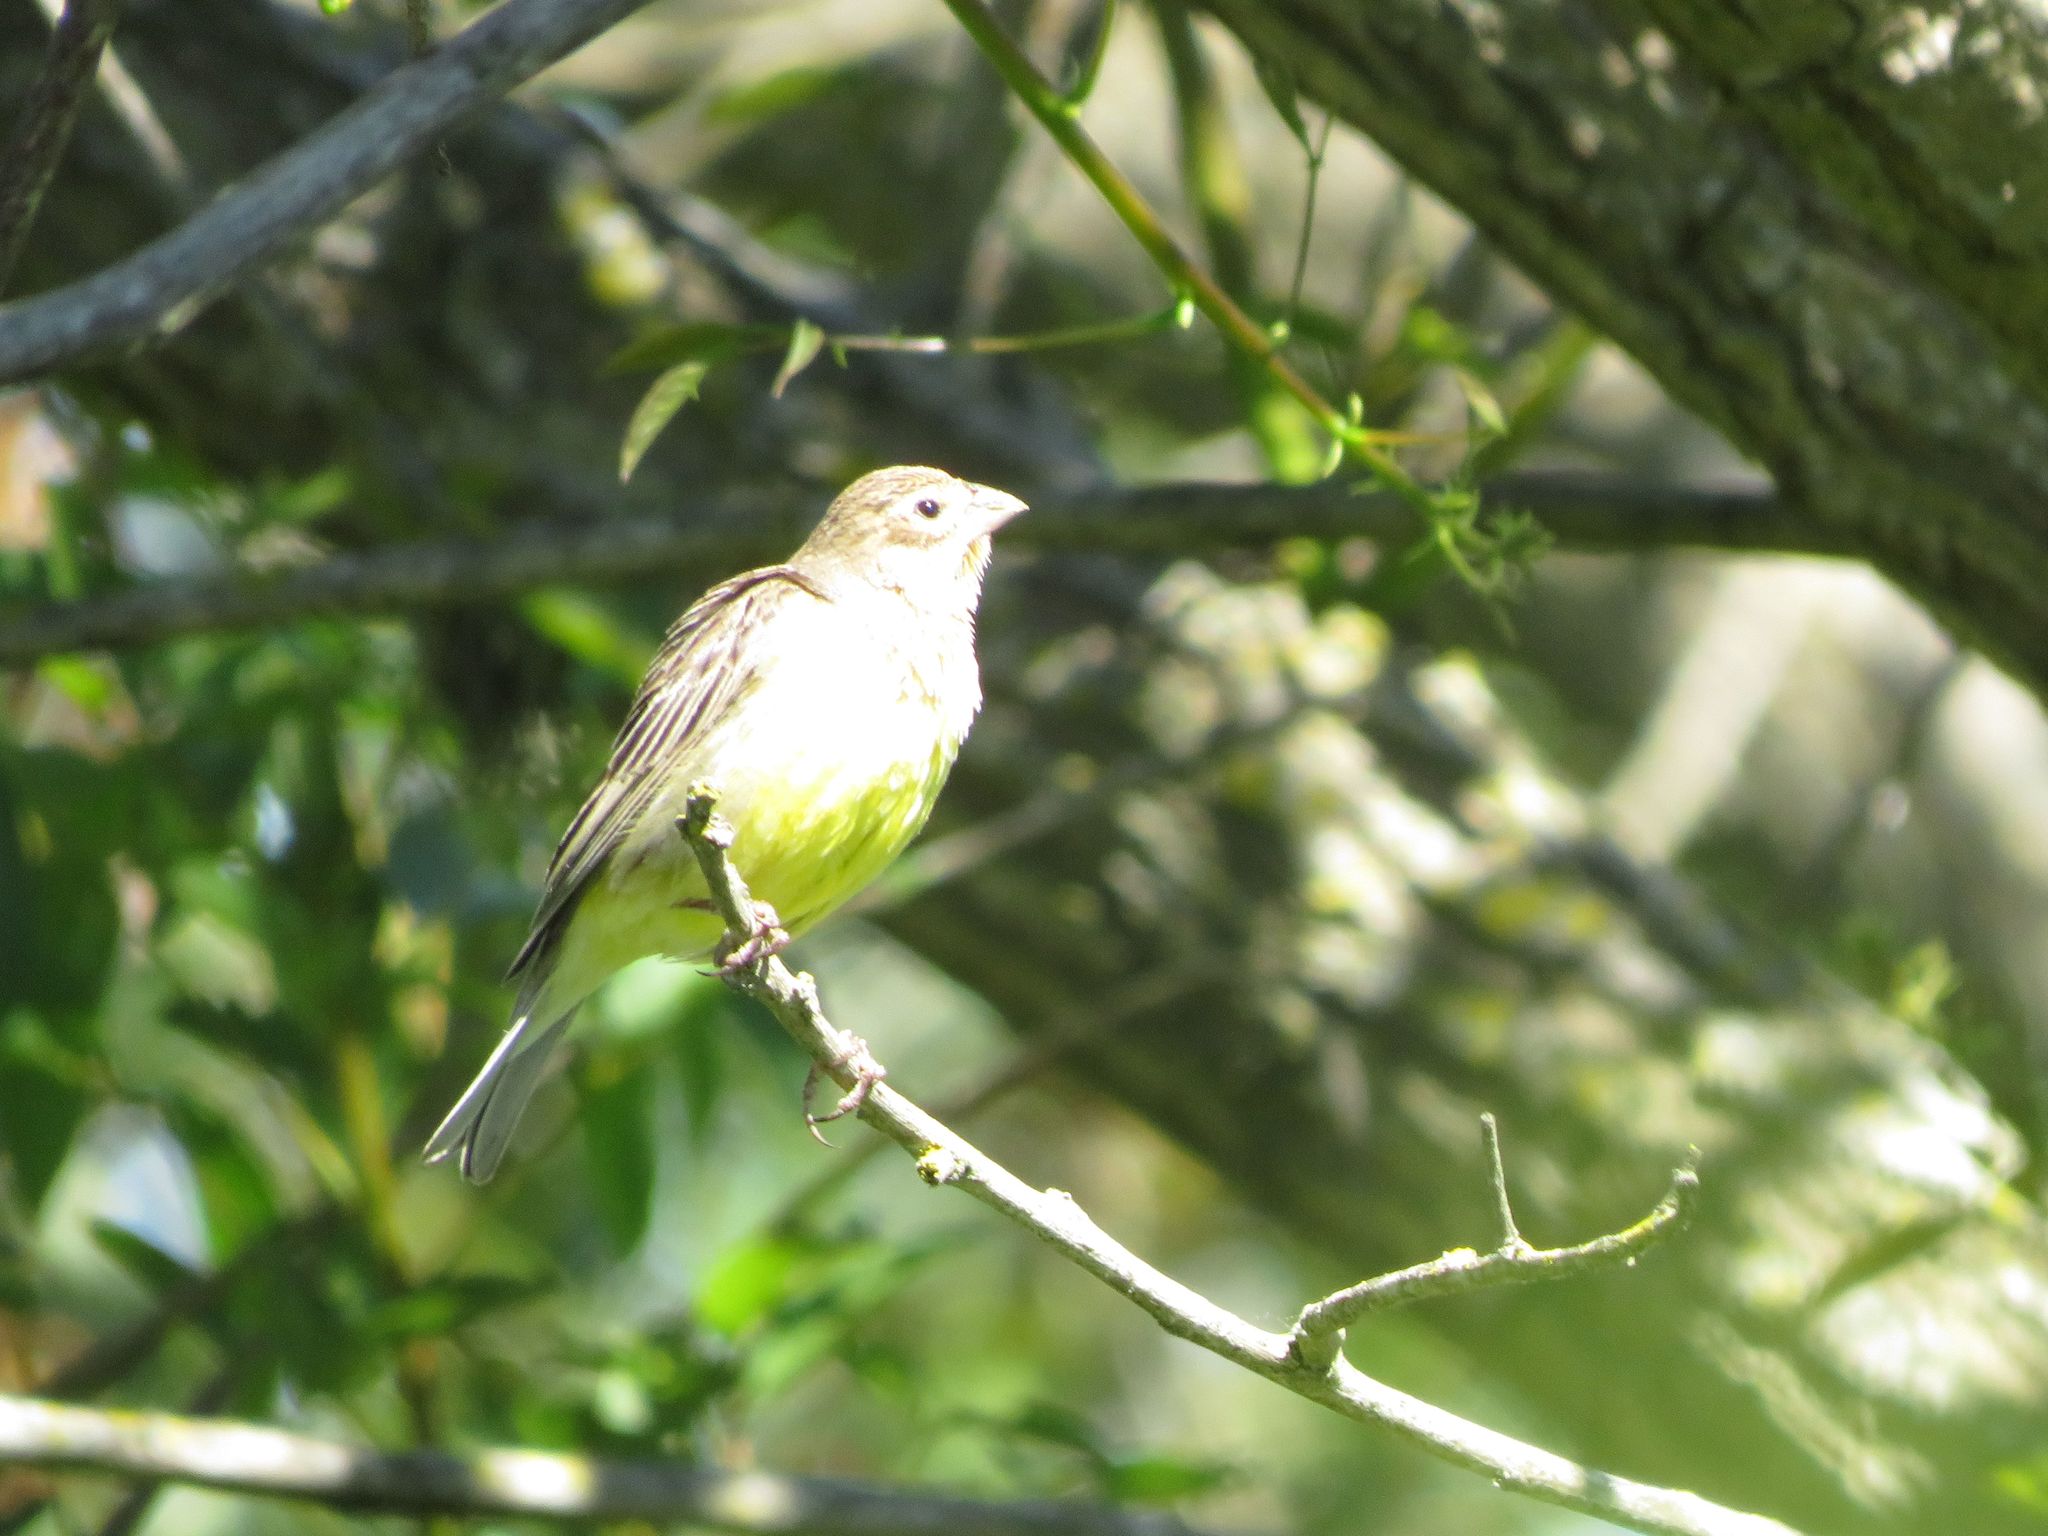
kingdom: Animalia
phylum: Chordata
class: Aves
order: Passeriformes
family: Thraupidae
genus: Sicalis
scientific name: Sicalis luteola
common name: Grassland yellow-finch
